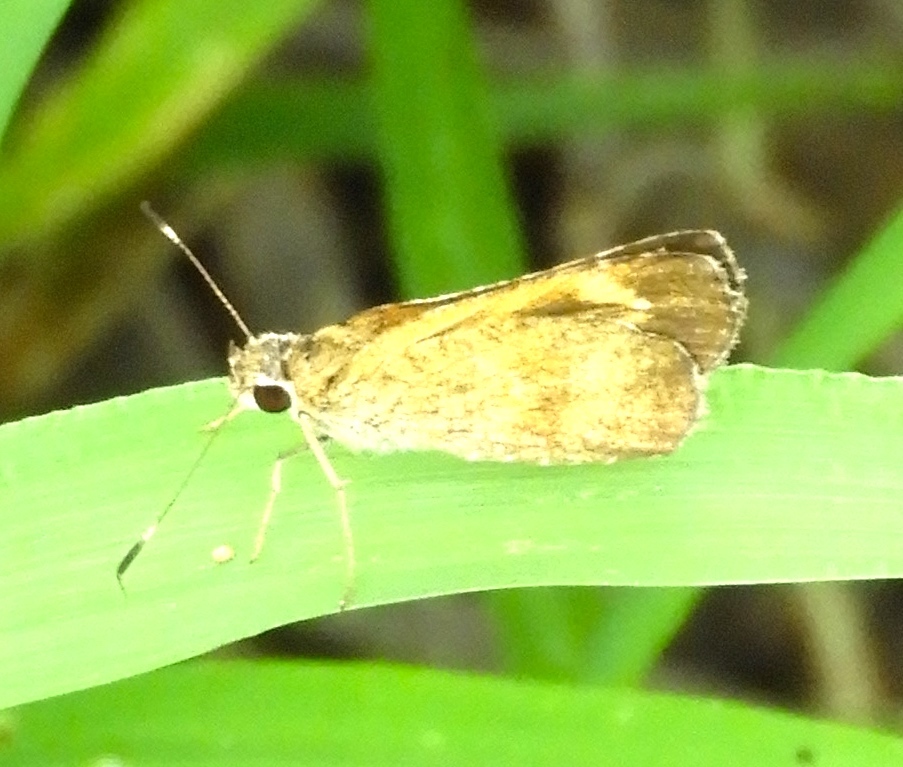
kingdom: Animalia
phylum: Arthropoda
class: Insecta
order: Lepidoptera
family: Hesperiidae
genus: Zopyrion
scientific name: Zopyrion sandace
